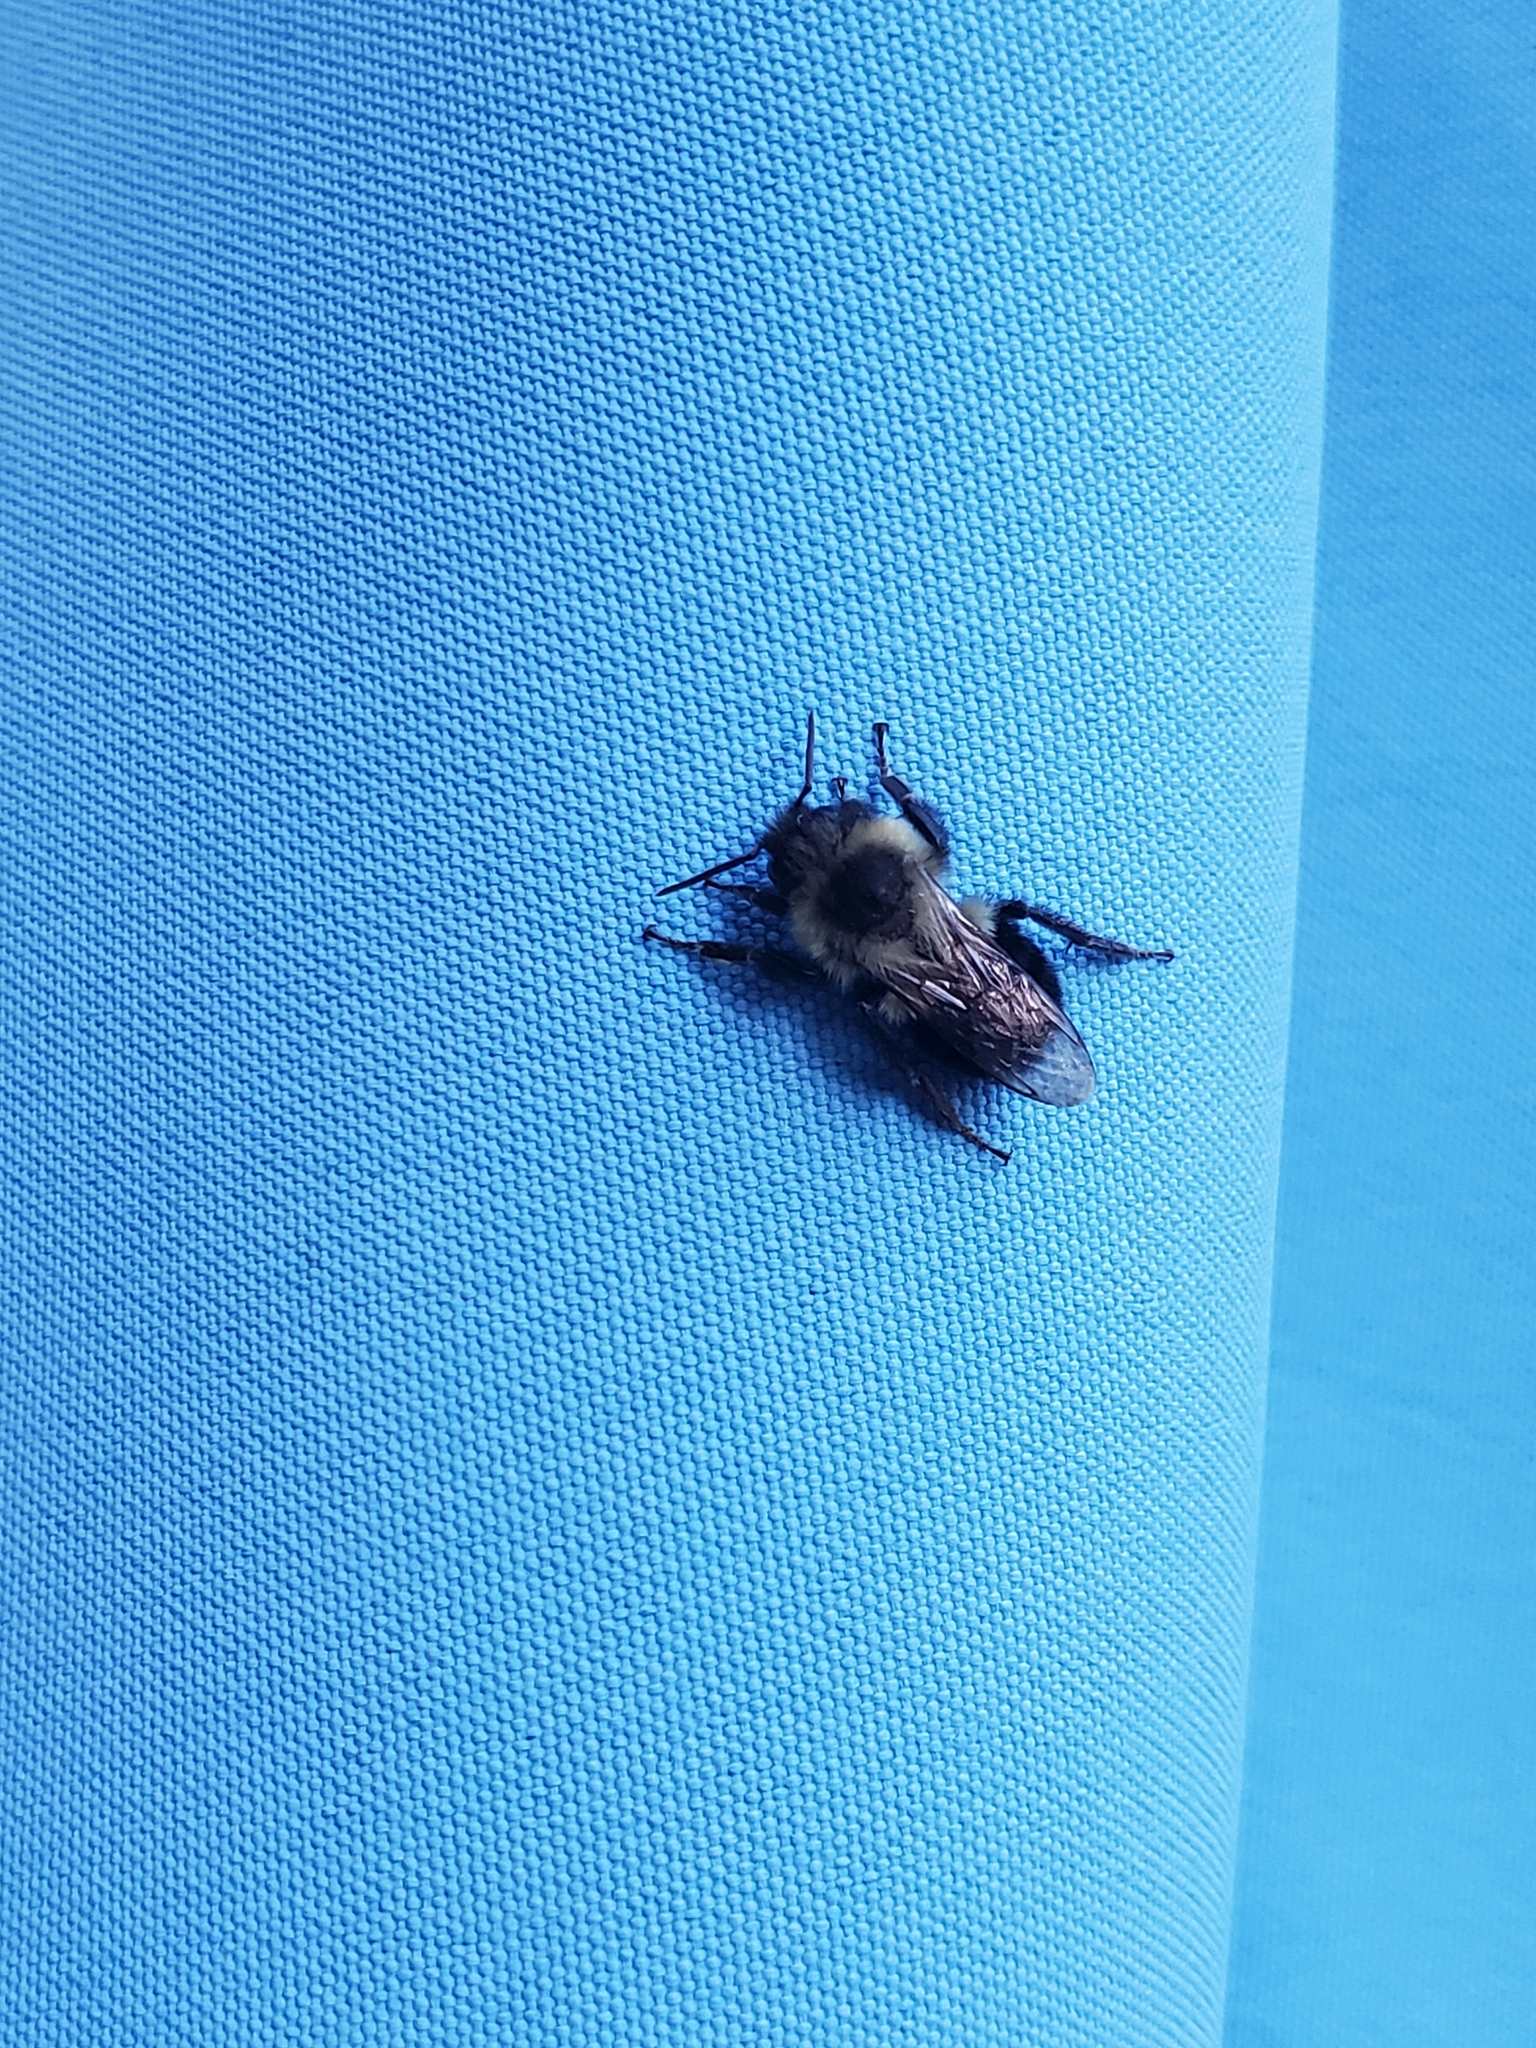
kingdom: Animalia
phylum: Arthropoda
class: Insecta
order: Hymenoptera
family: Apidae
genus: Bombus
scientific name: Bombus impatiens
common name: Common eastern bumble bee
